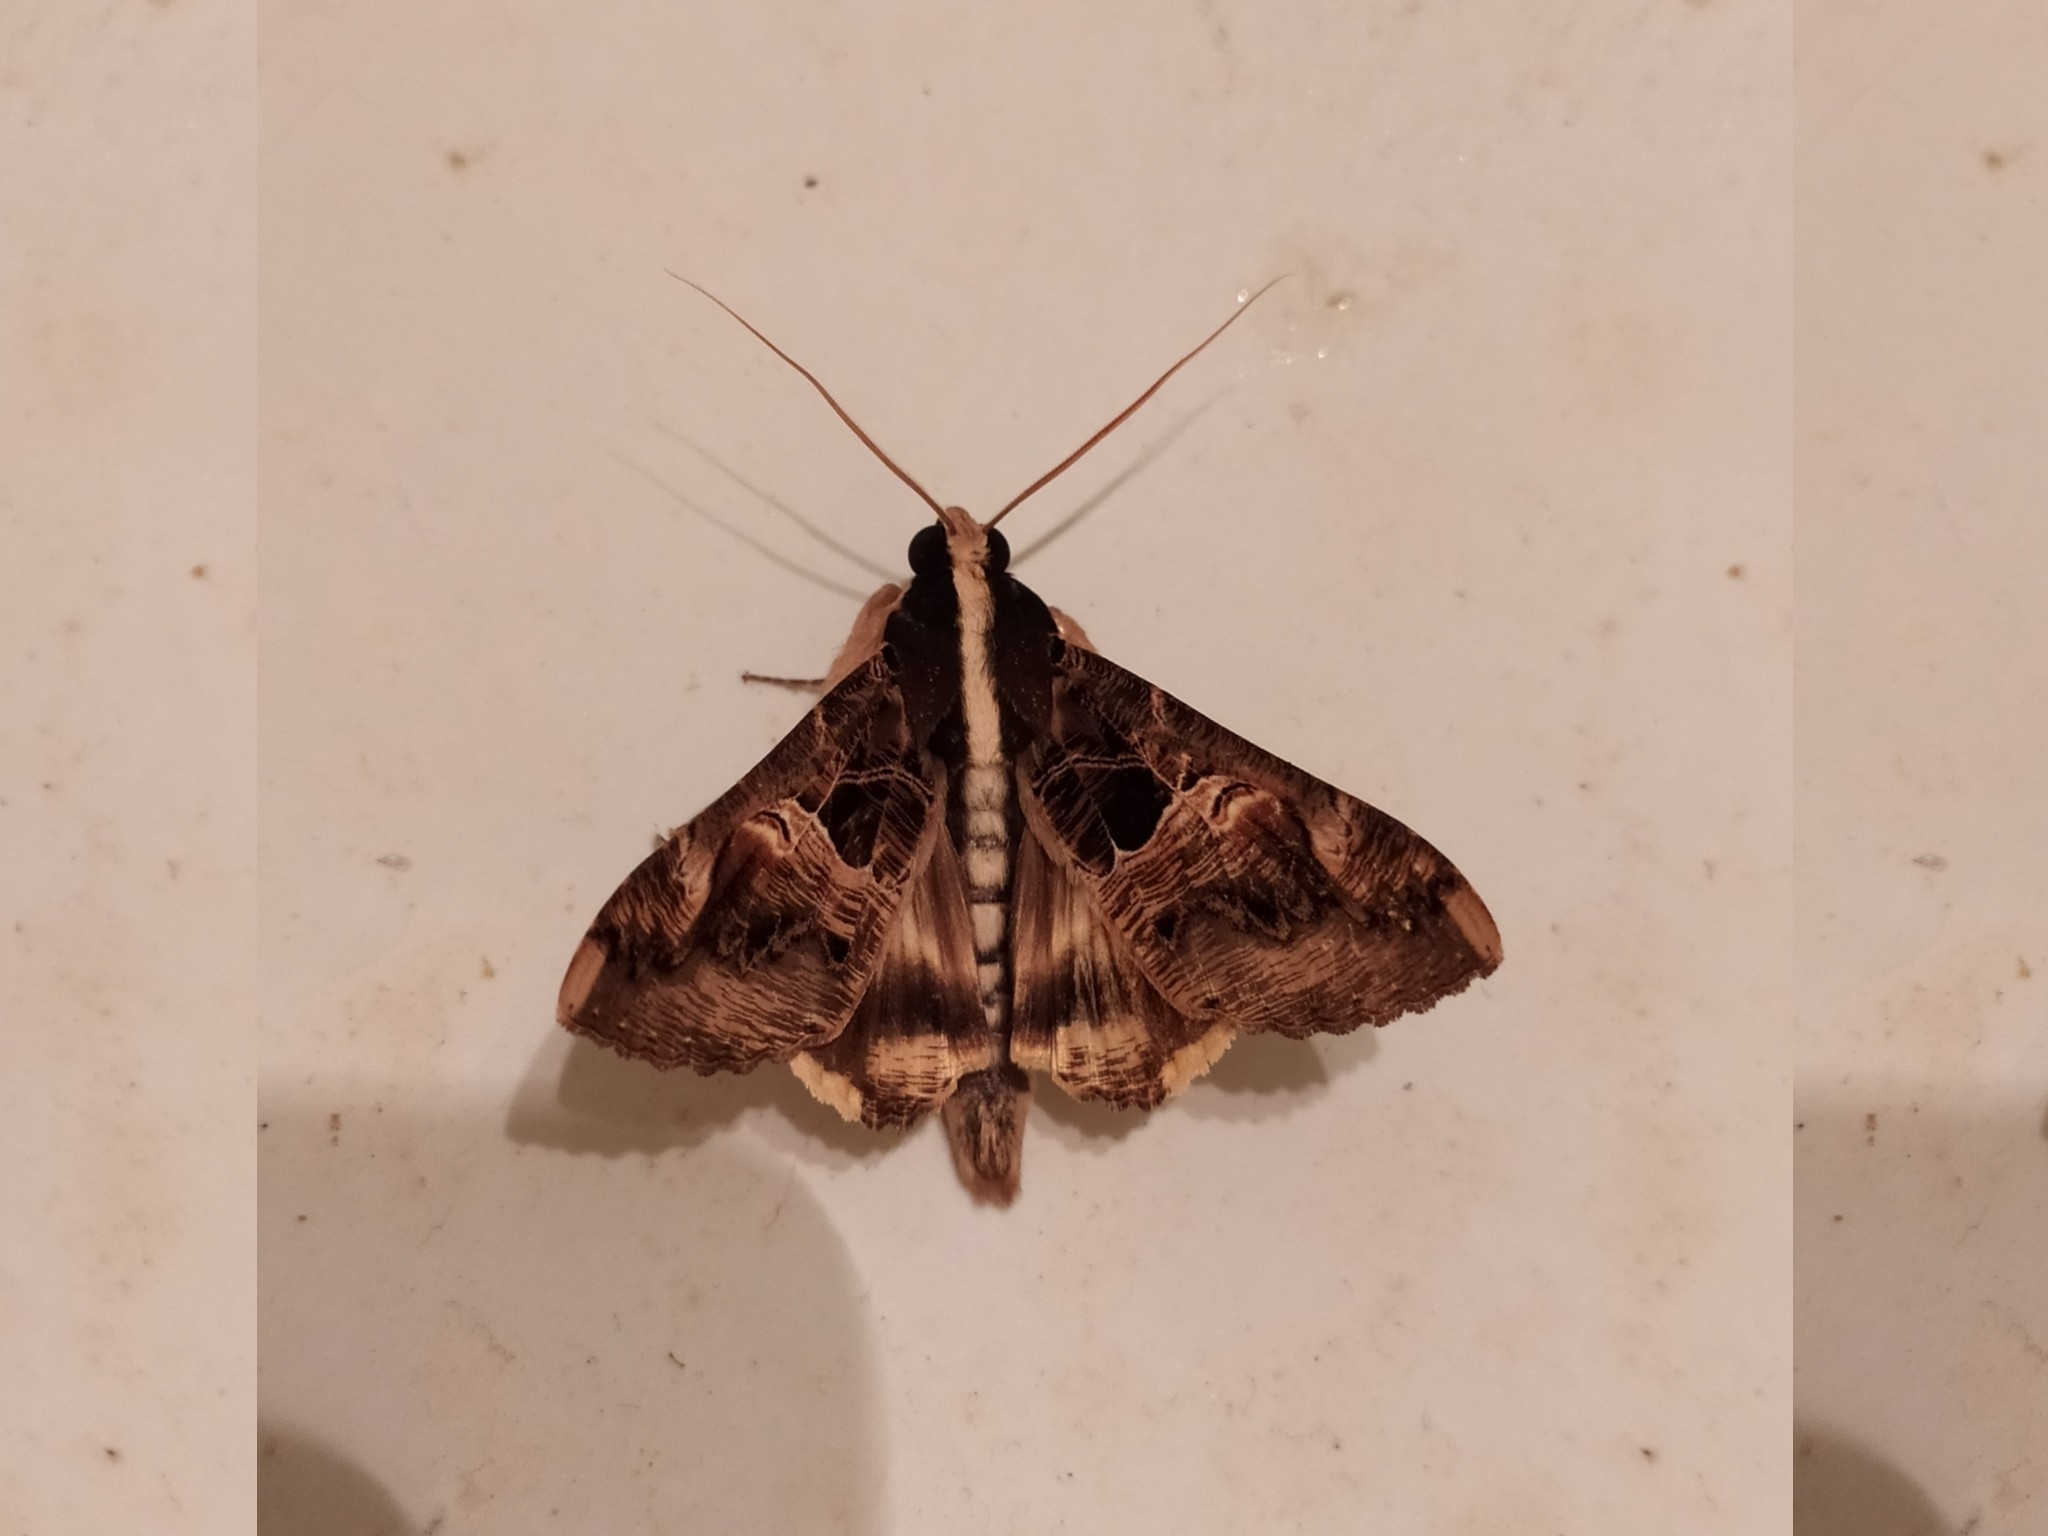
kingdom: Animalia
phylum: Arthropoda
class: Insecta
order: Lepidoptera
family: Erebidae
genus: Sphingomorpha
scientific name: Sphingomorpha chlorea
